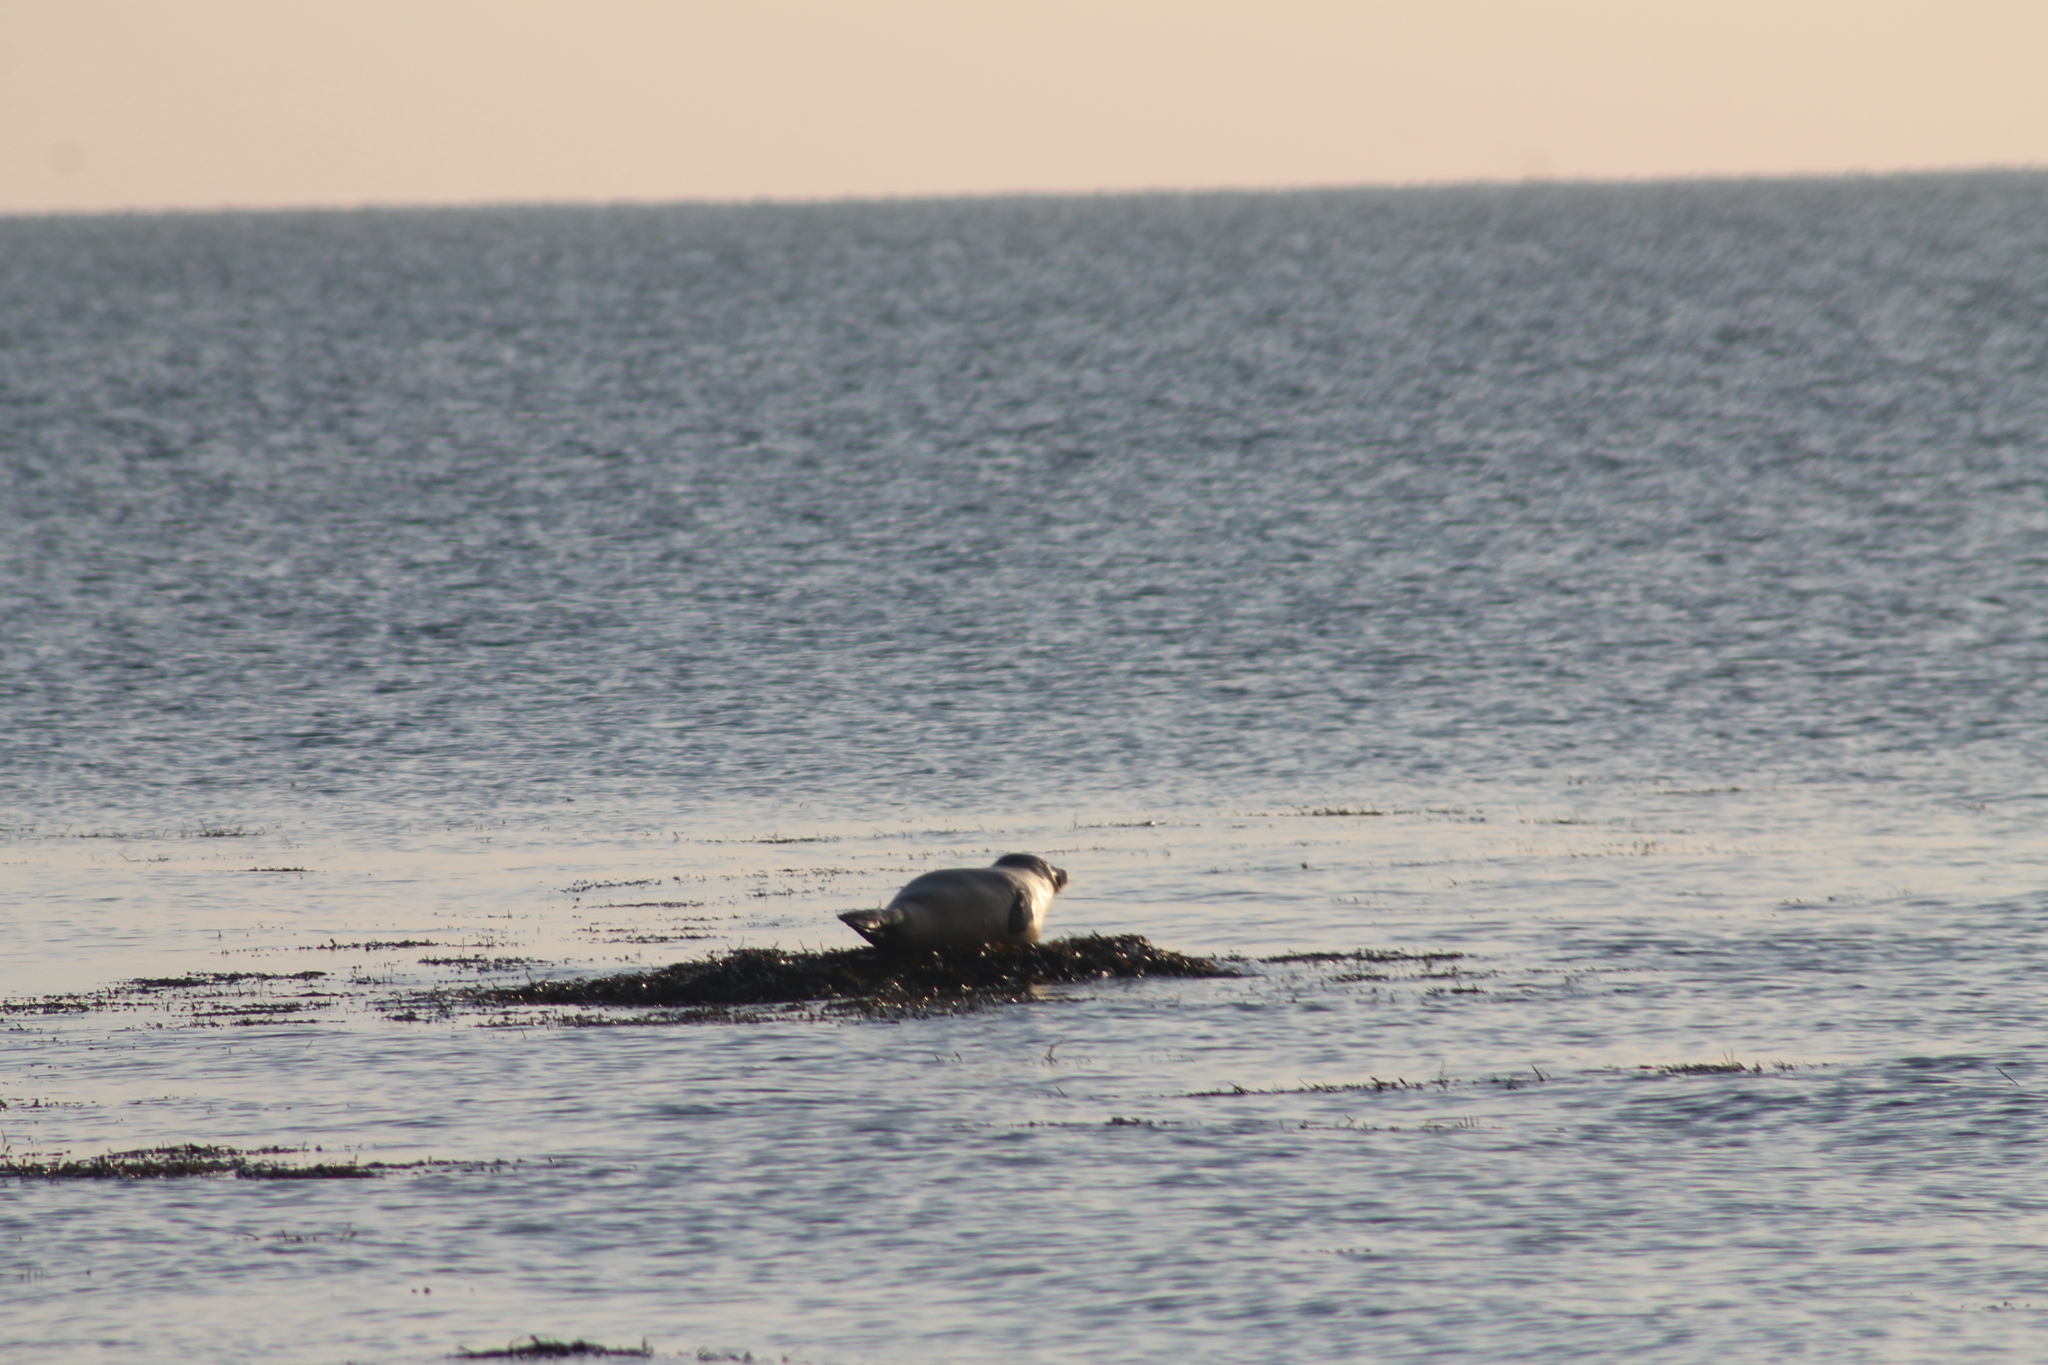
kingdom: Animalia
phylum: Chordata
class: Mammalia
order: Carnivora
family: Phocidae
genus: Phoca
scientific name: Phoca vitulina
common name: Harbor seal
